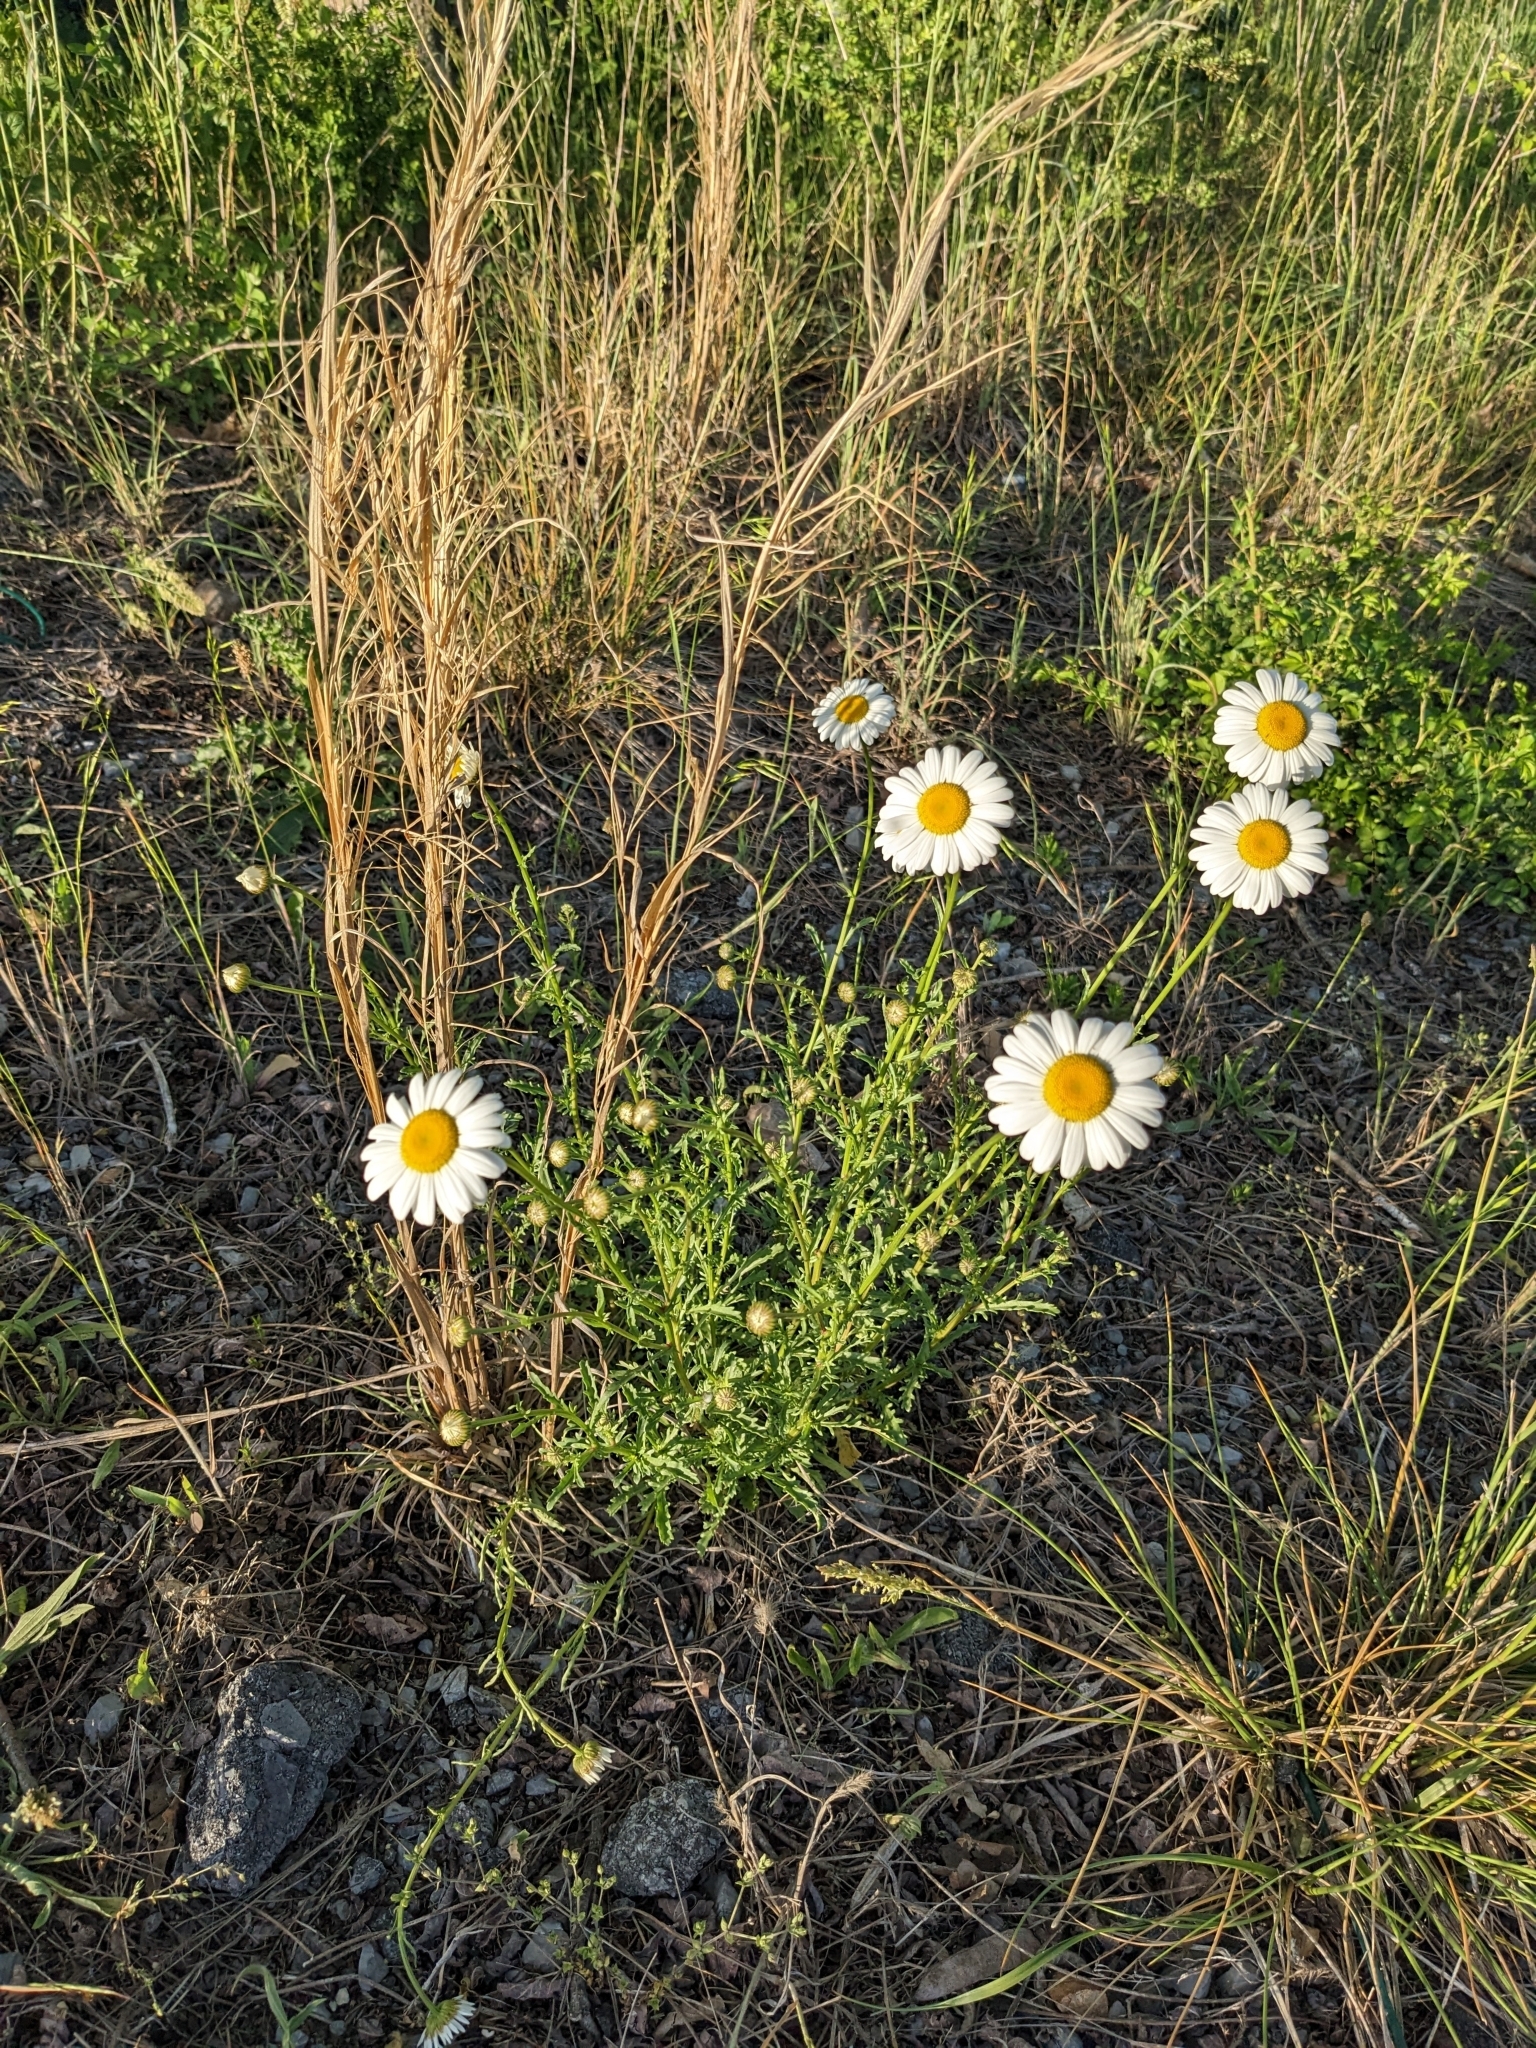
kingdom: Plantae
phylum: Tracheophyta
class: Magnoliopsida
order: Asterales
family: Asteraceae
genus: Leucanthemum
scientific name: Leucanthemum vulgare
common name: Oxeye daisy
